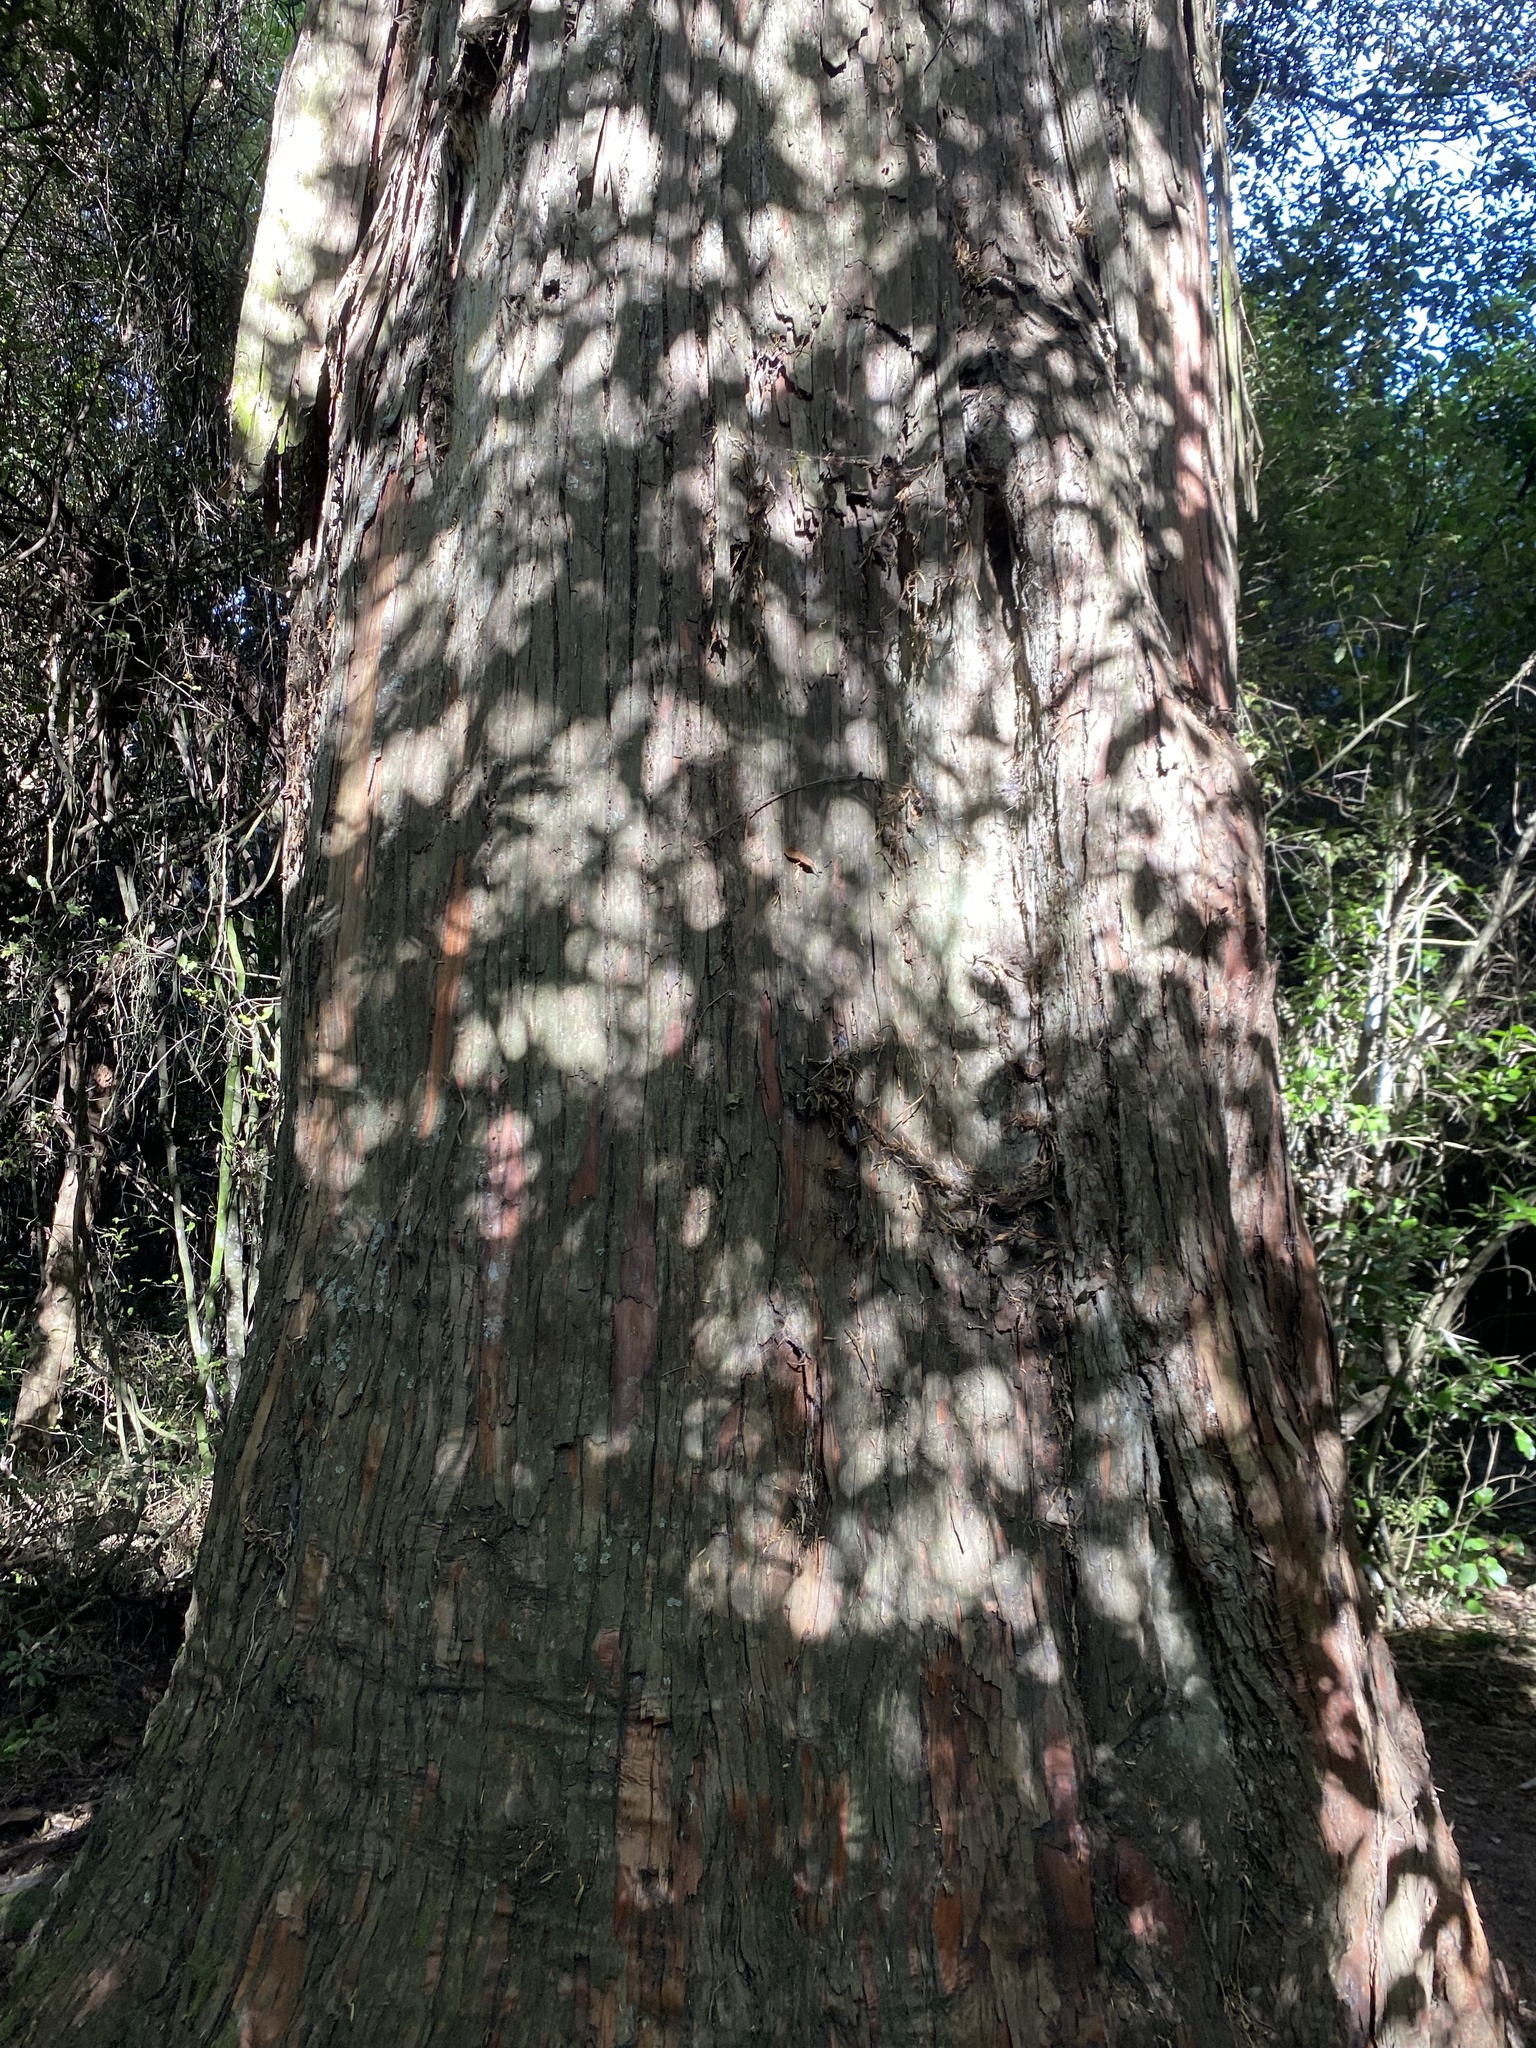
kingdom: Plantae
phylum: Tracheophyta
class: Pinopsida
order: Pinales
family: Podocarpaceae
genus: Podocarpus
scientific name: Podocarpus totara
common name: Totara
